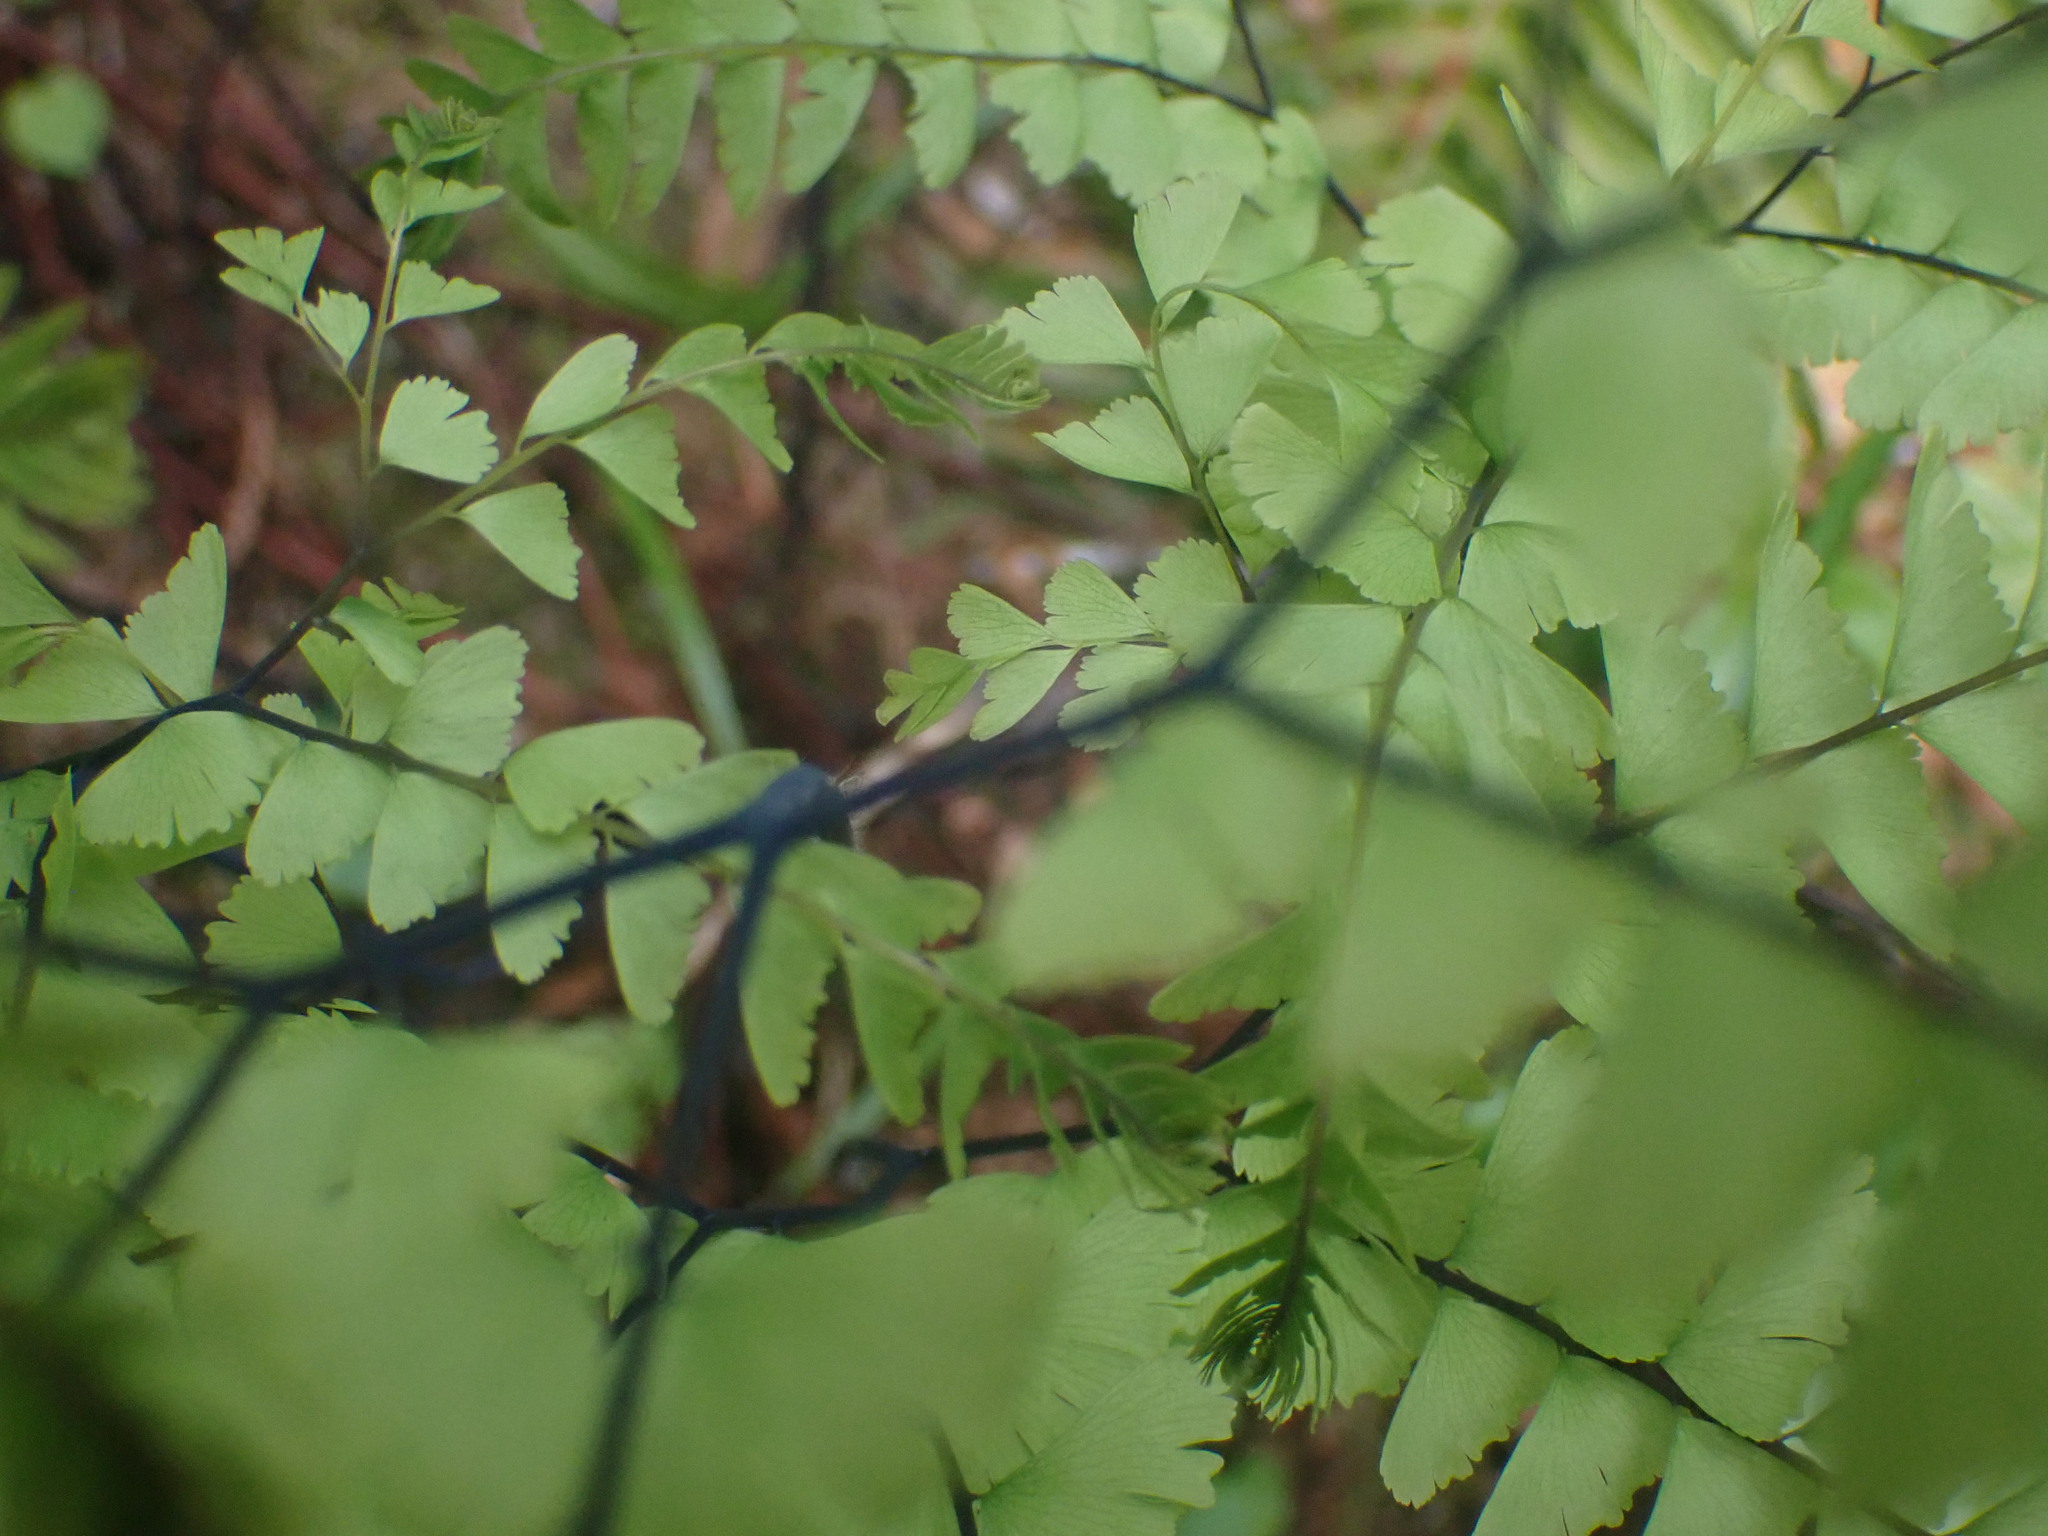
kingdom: Plantae
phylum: Tracheophyta
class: Polypodiopsida
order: Polypodiales
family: Pteridaceae
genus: Adiantum
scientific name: Adiantum aleuticum
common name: Aleutian maidenhair fern
